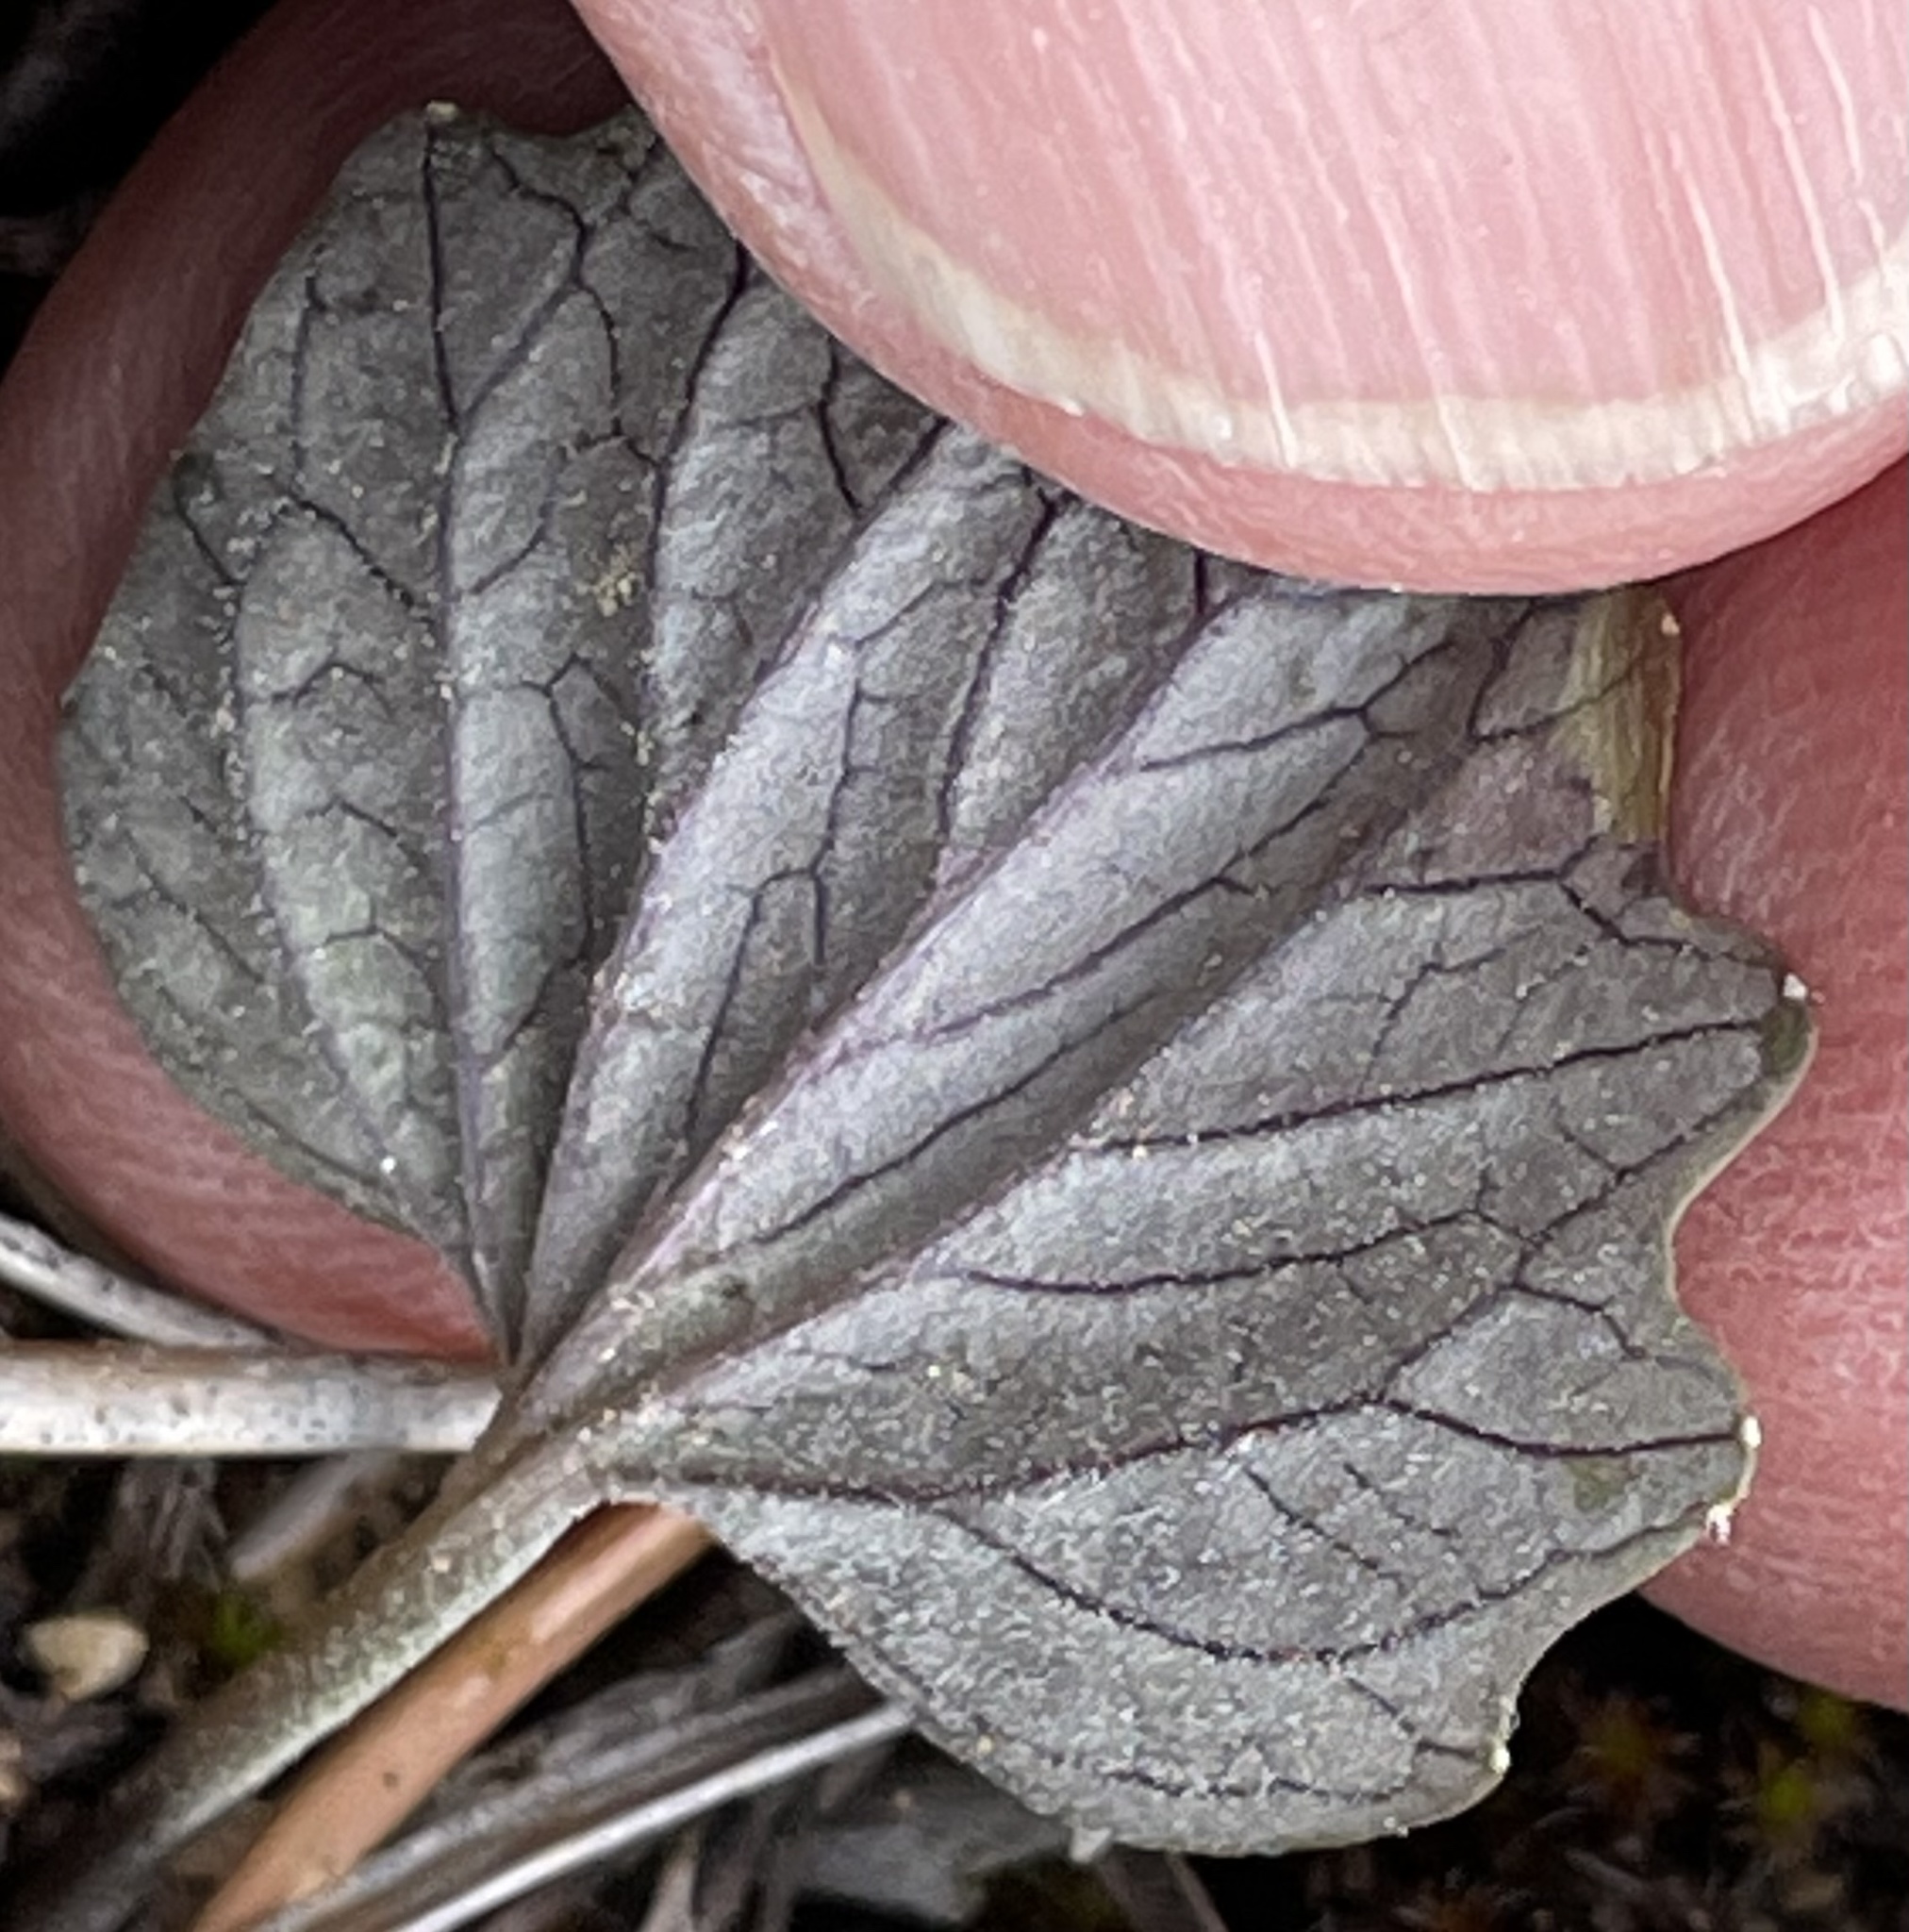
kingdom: Plantae
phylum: Tracheophyta
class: Magnoliopsida
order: Malpighiales
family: Violaceae
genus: Viola
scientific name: Viola purpurea
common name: Pine violet
